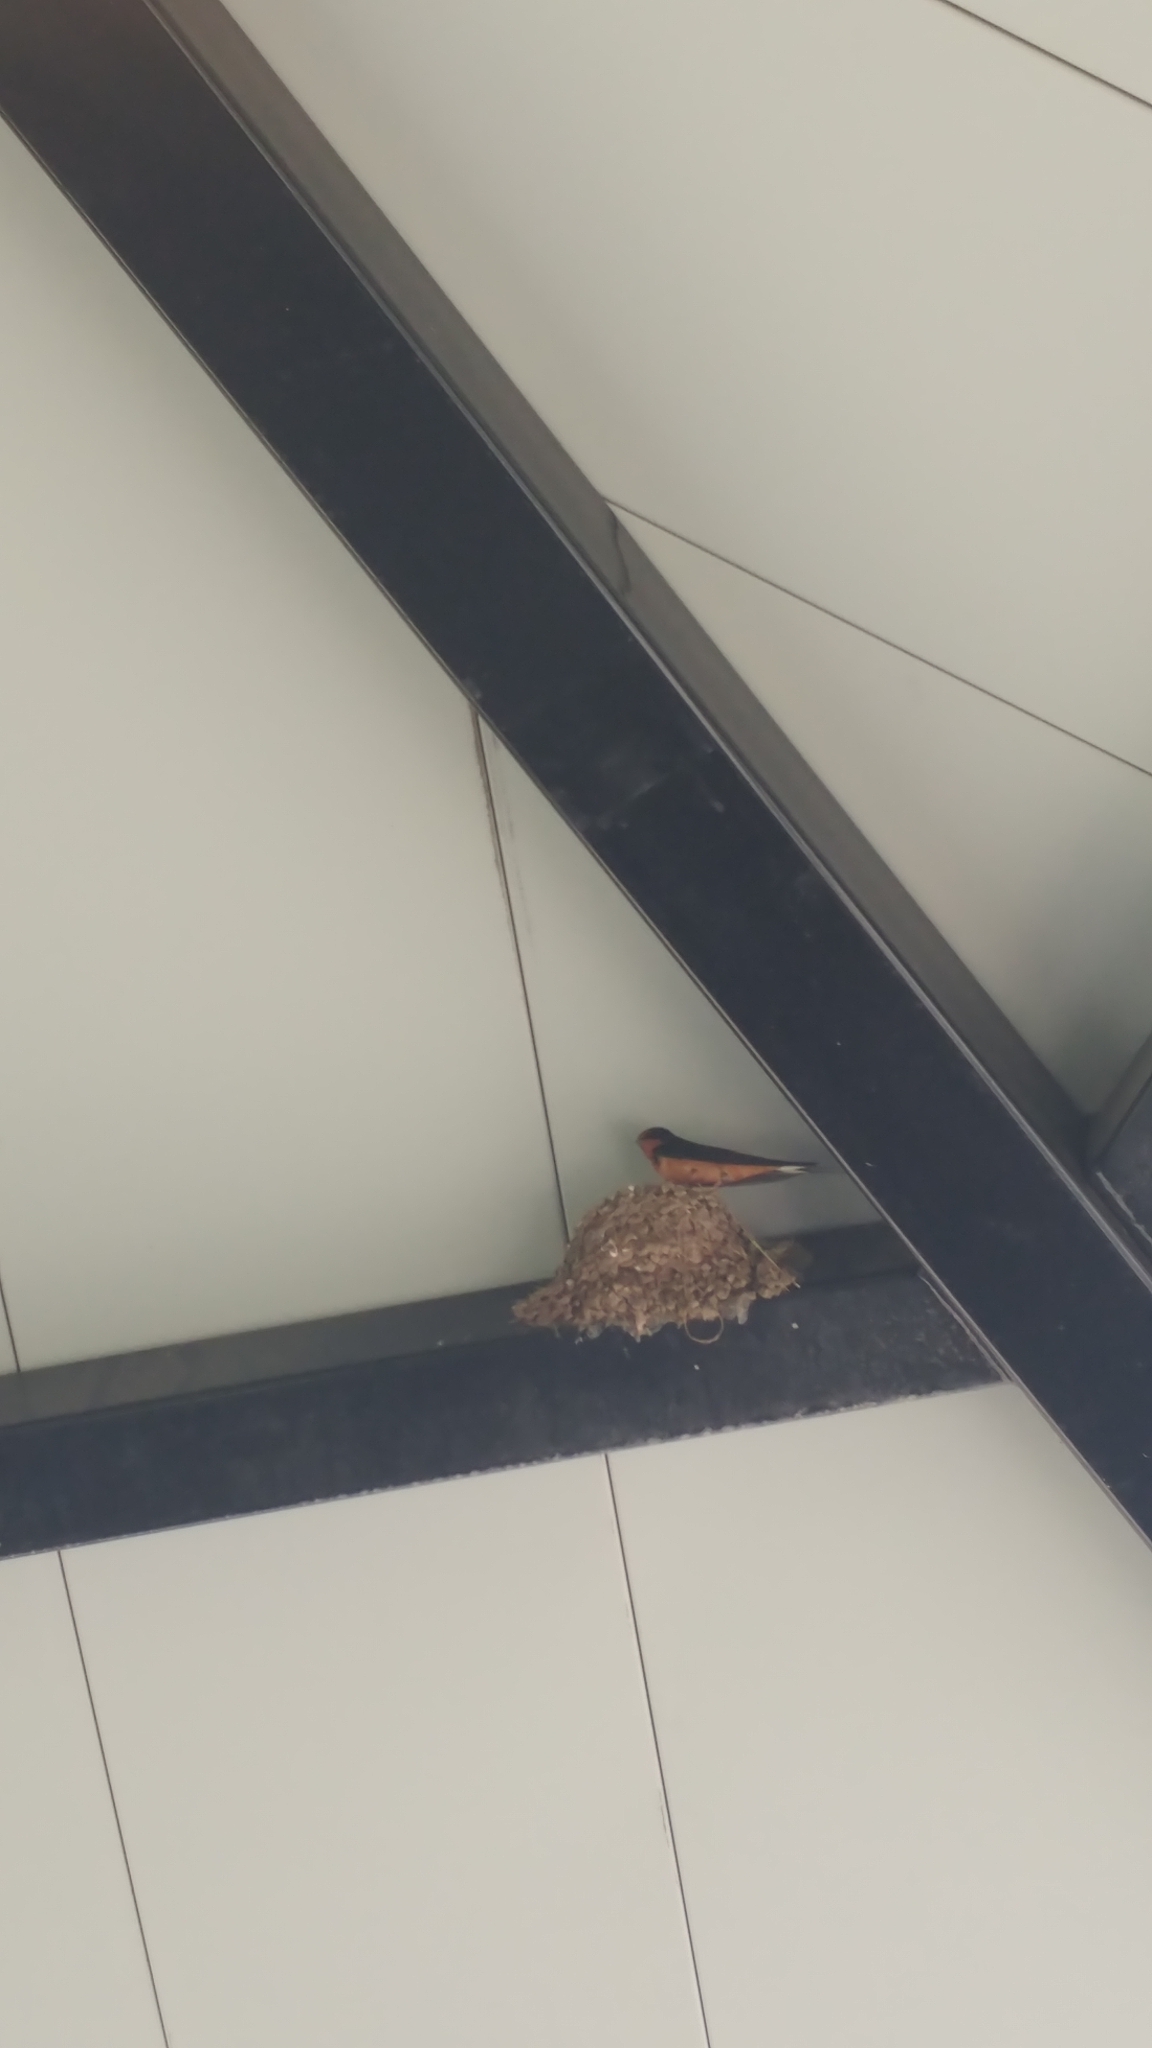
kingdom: Animalia
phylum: Chordata
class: Aves
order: Passeriformes
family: Hirundinidae
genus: Hirundo
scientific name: Hirundo rustica
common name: Barn swallow
